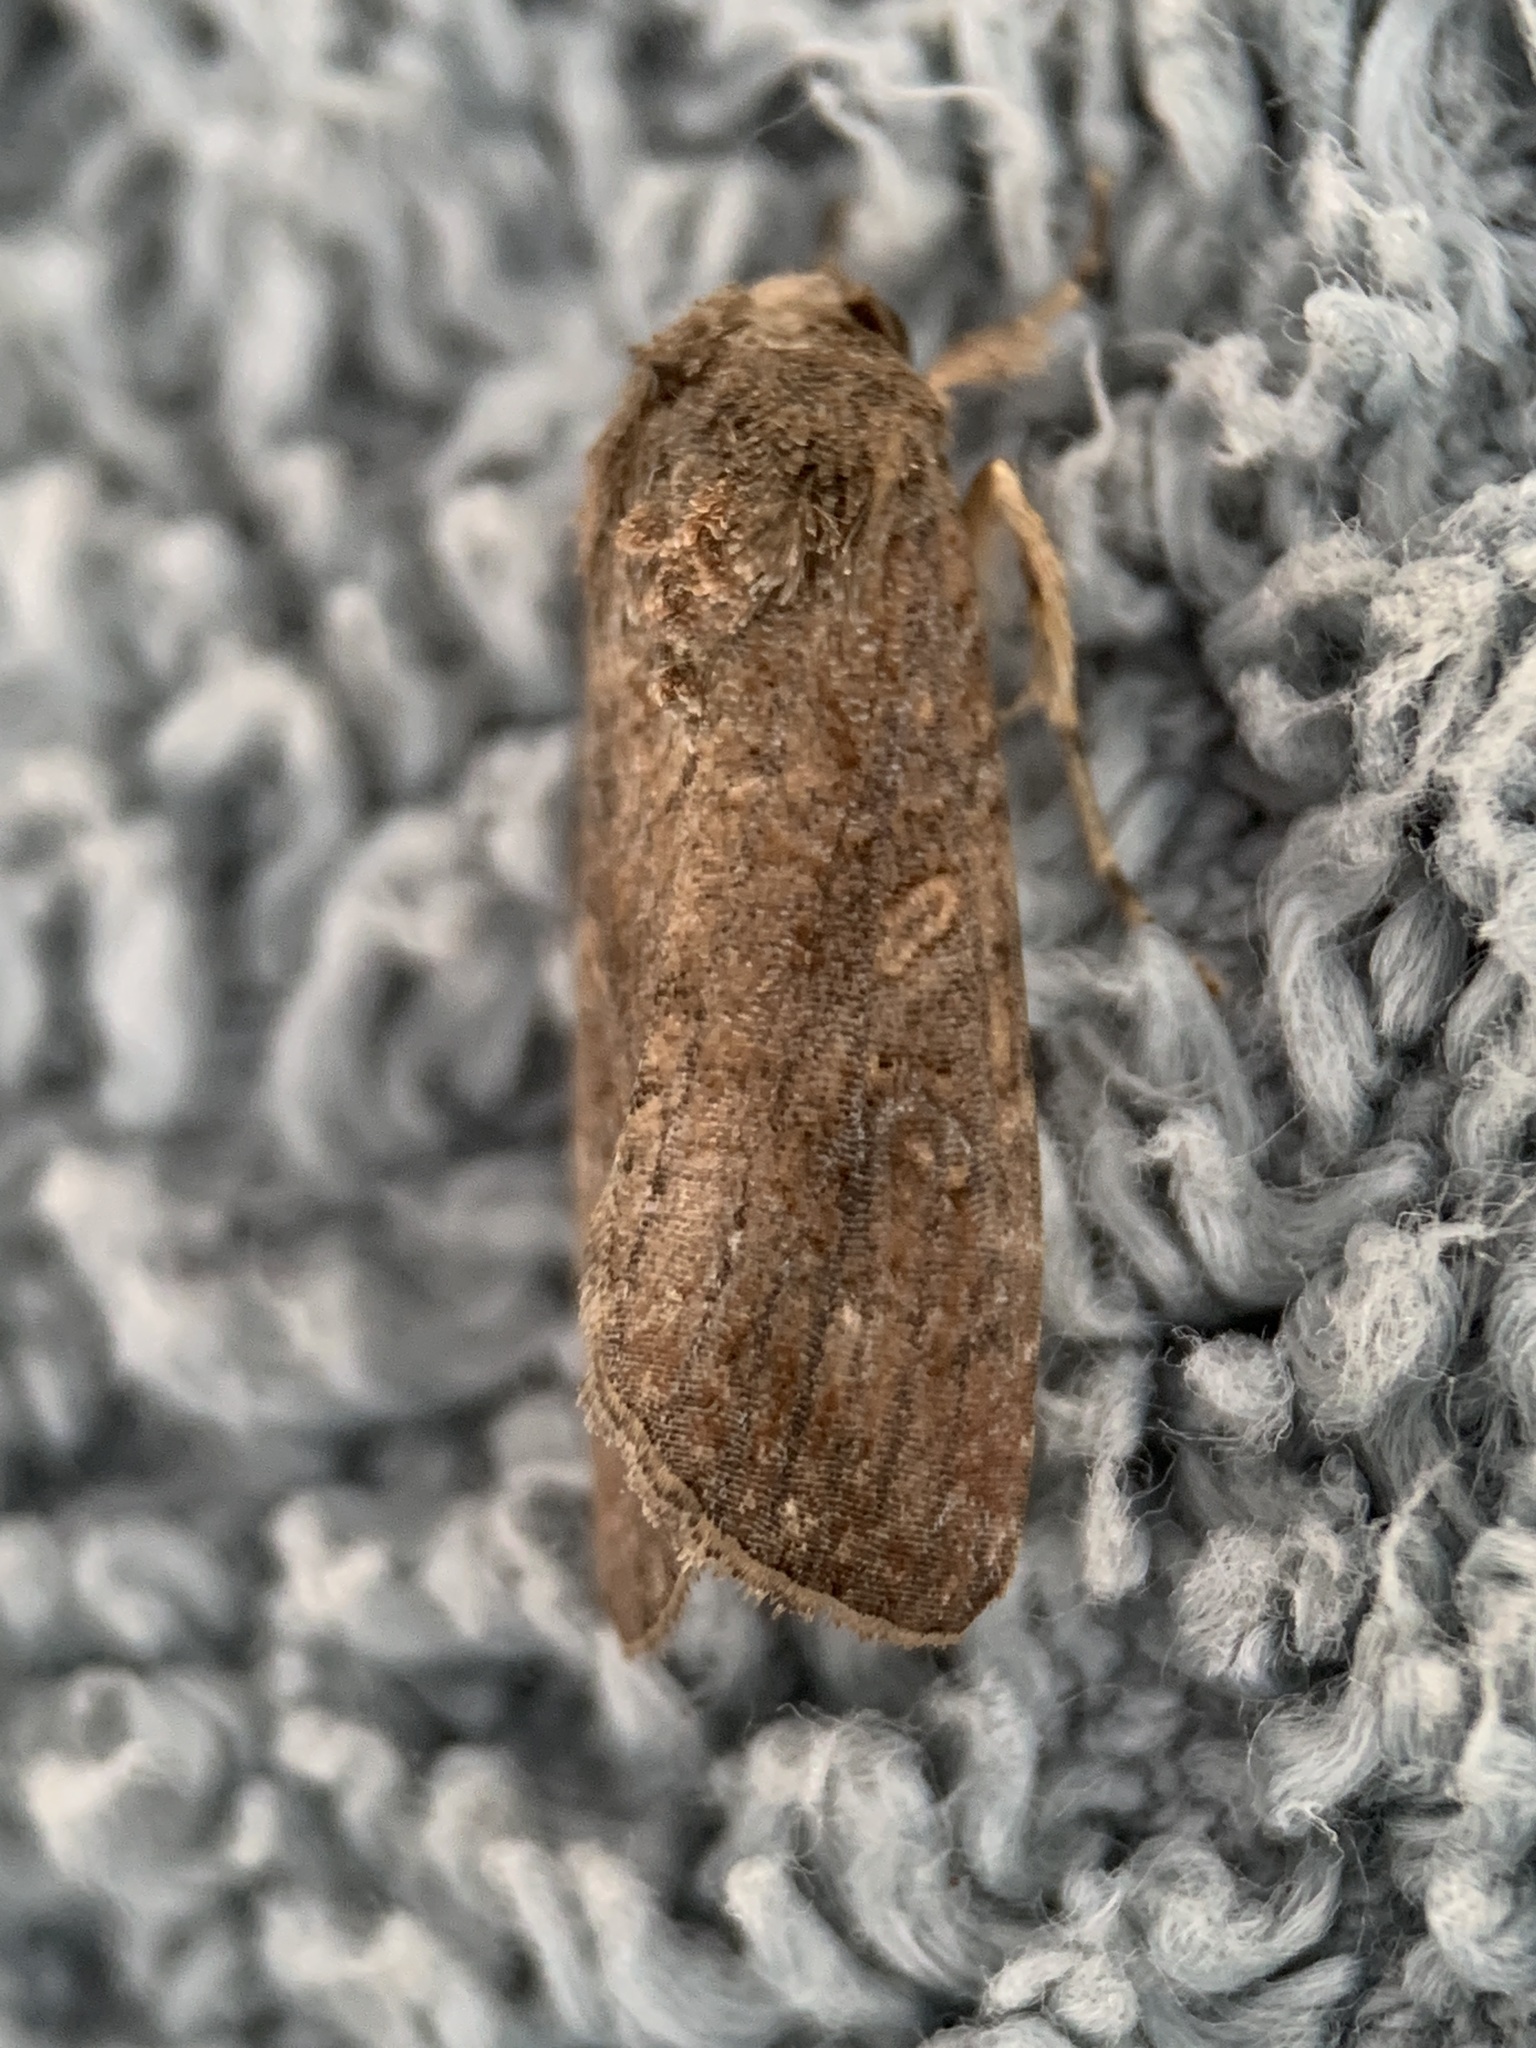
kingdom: Animalia
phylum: Arthropoda
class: Insecta
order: Lepidoptera
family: Noctuidae
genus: Spodoptera
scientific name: Spodoptera frugiperda
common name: Fall armyworm
